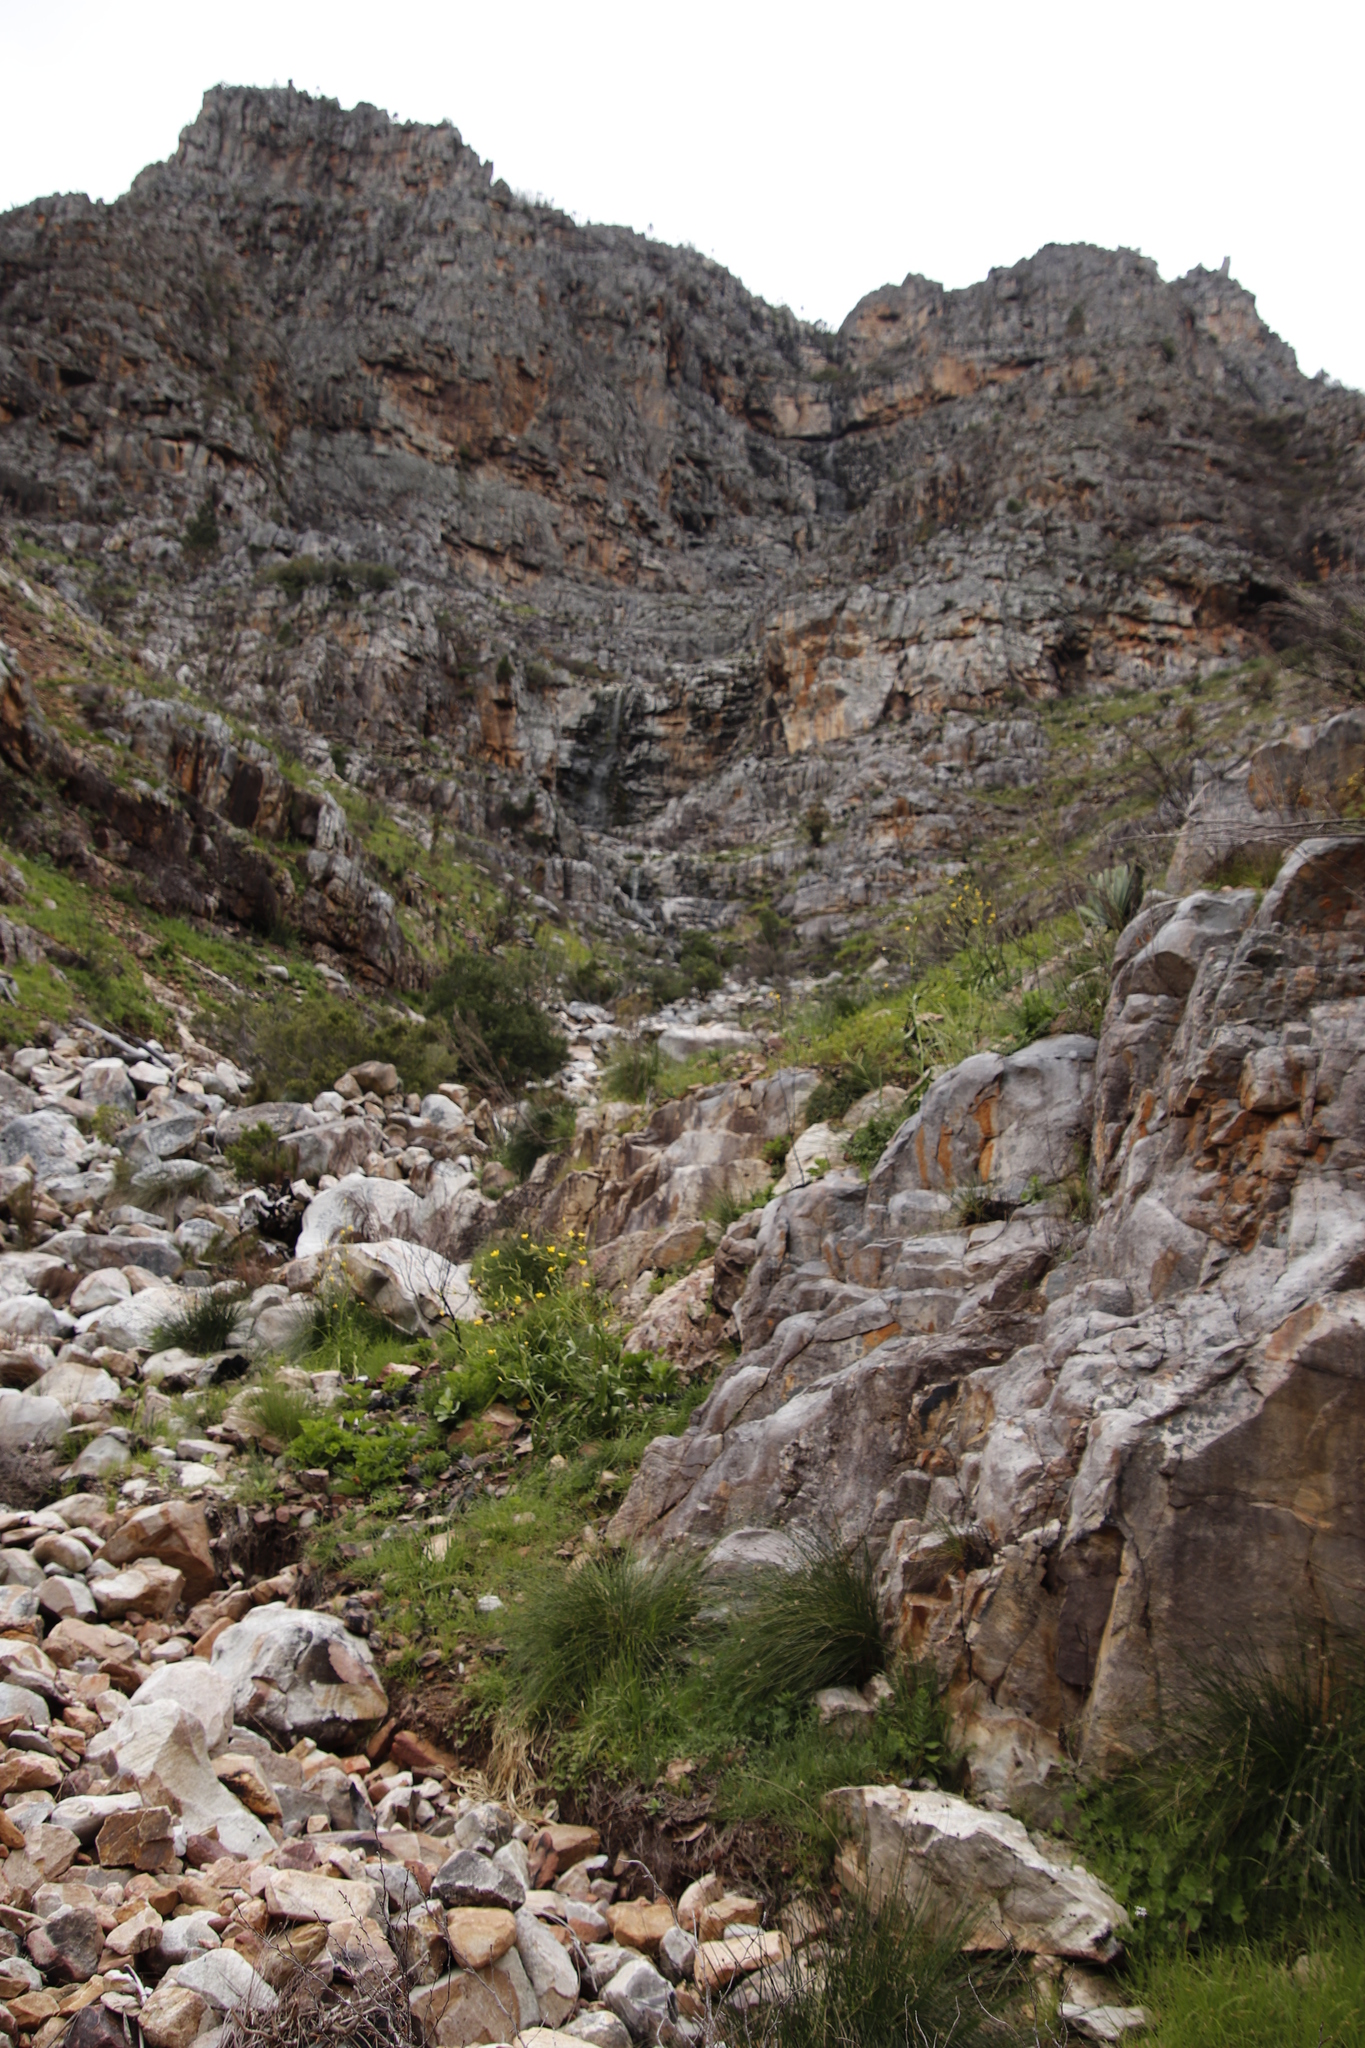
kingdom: Plantae
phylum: Tracheophyta
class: Liliopsida
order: Asparagales
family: Iridaceae
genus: Moraea
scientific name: Moraea ramosissima
